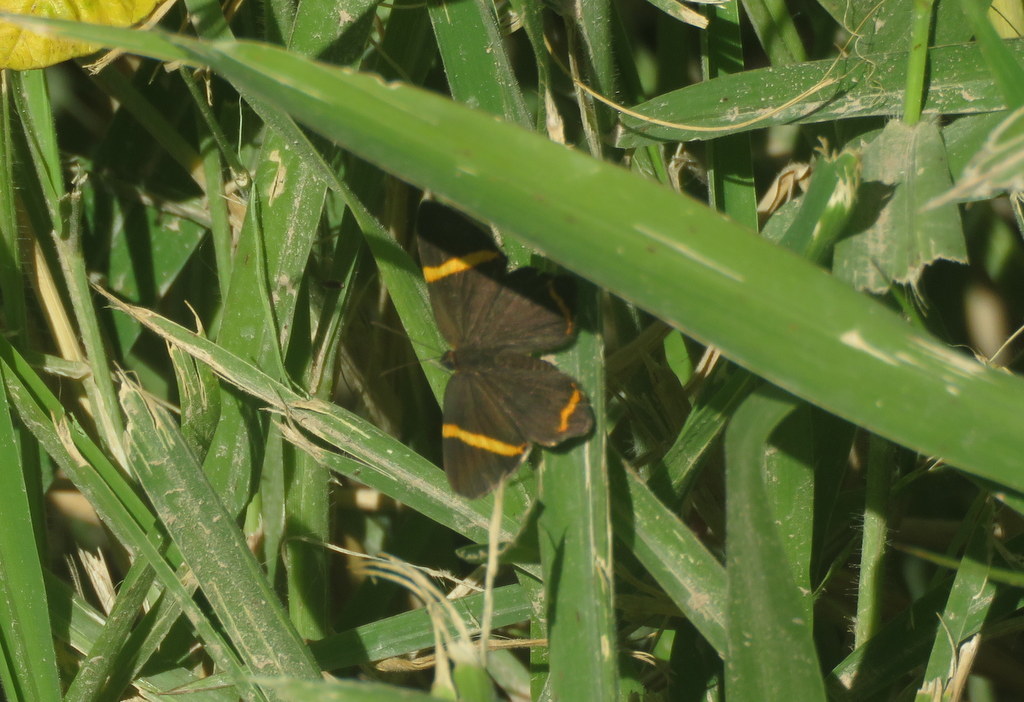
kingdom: Animalia
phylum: Arthropoda
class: Insecta
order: Lepidoptera
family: Riodinidae
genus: Riodina
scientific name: Riodina lysippoides
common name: Little dancer metalmark
